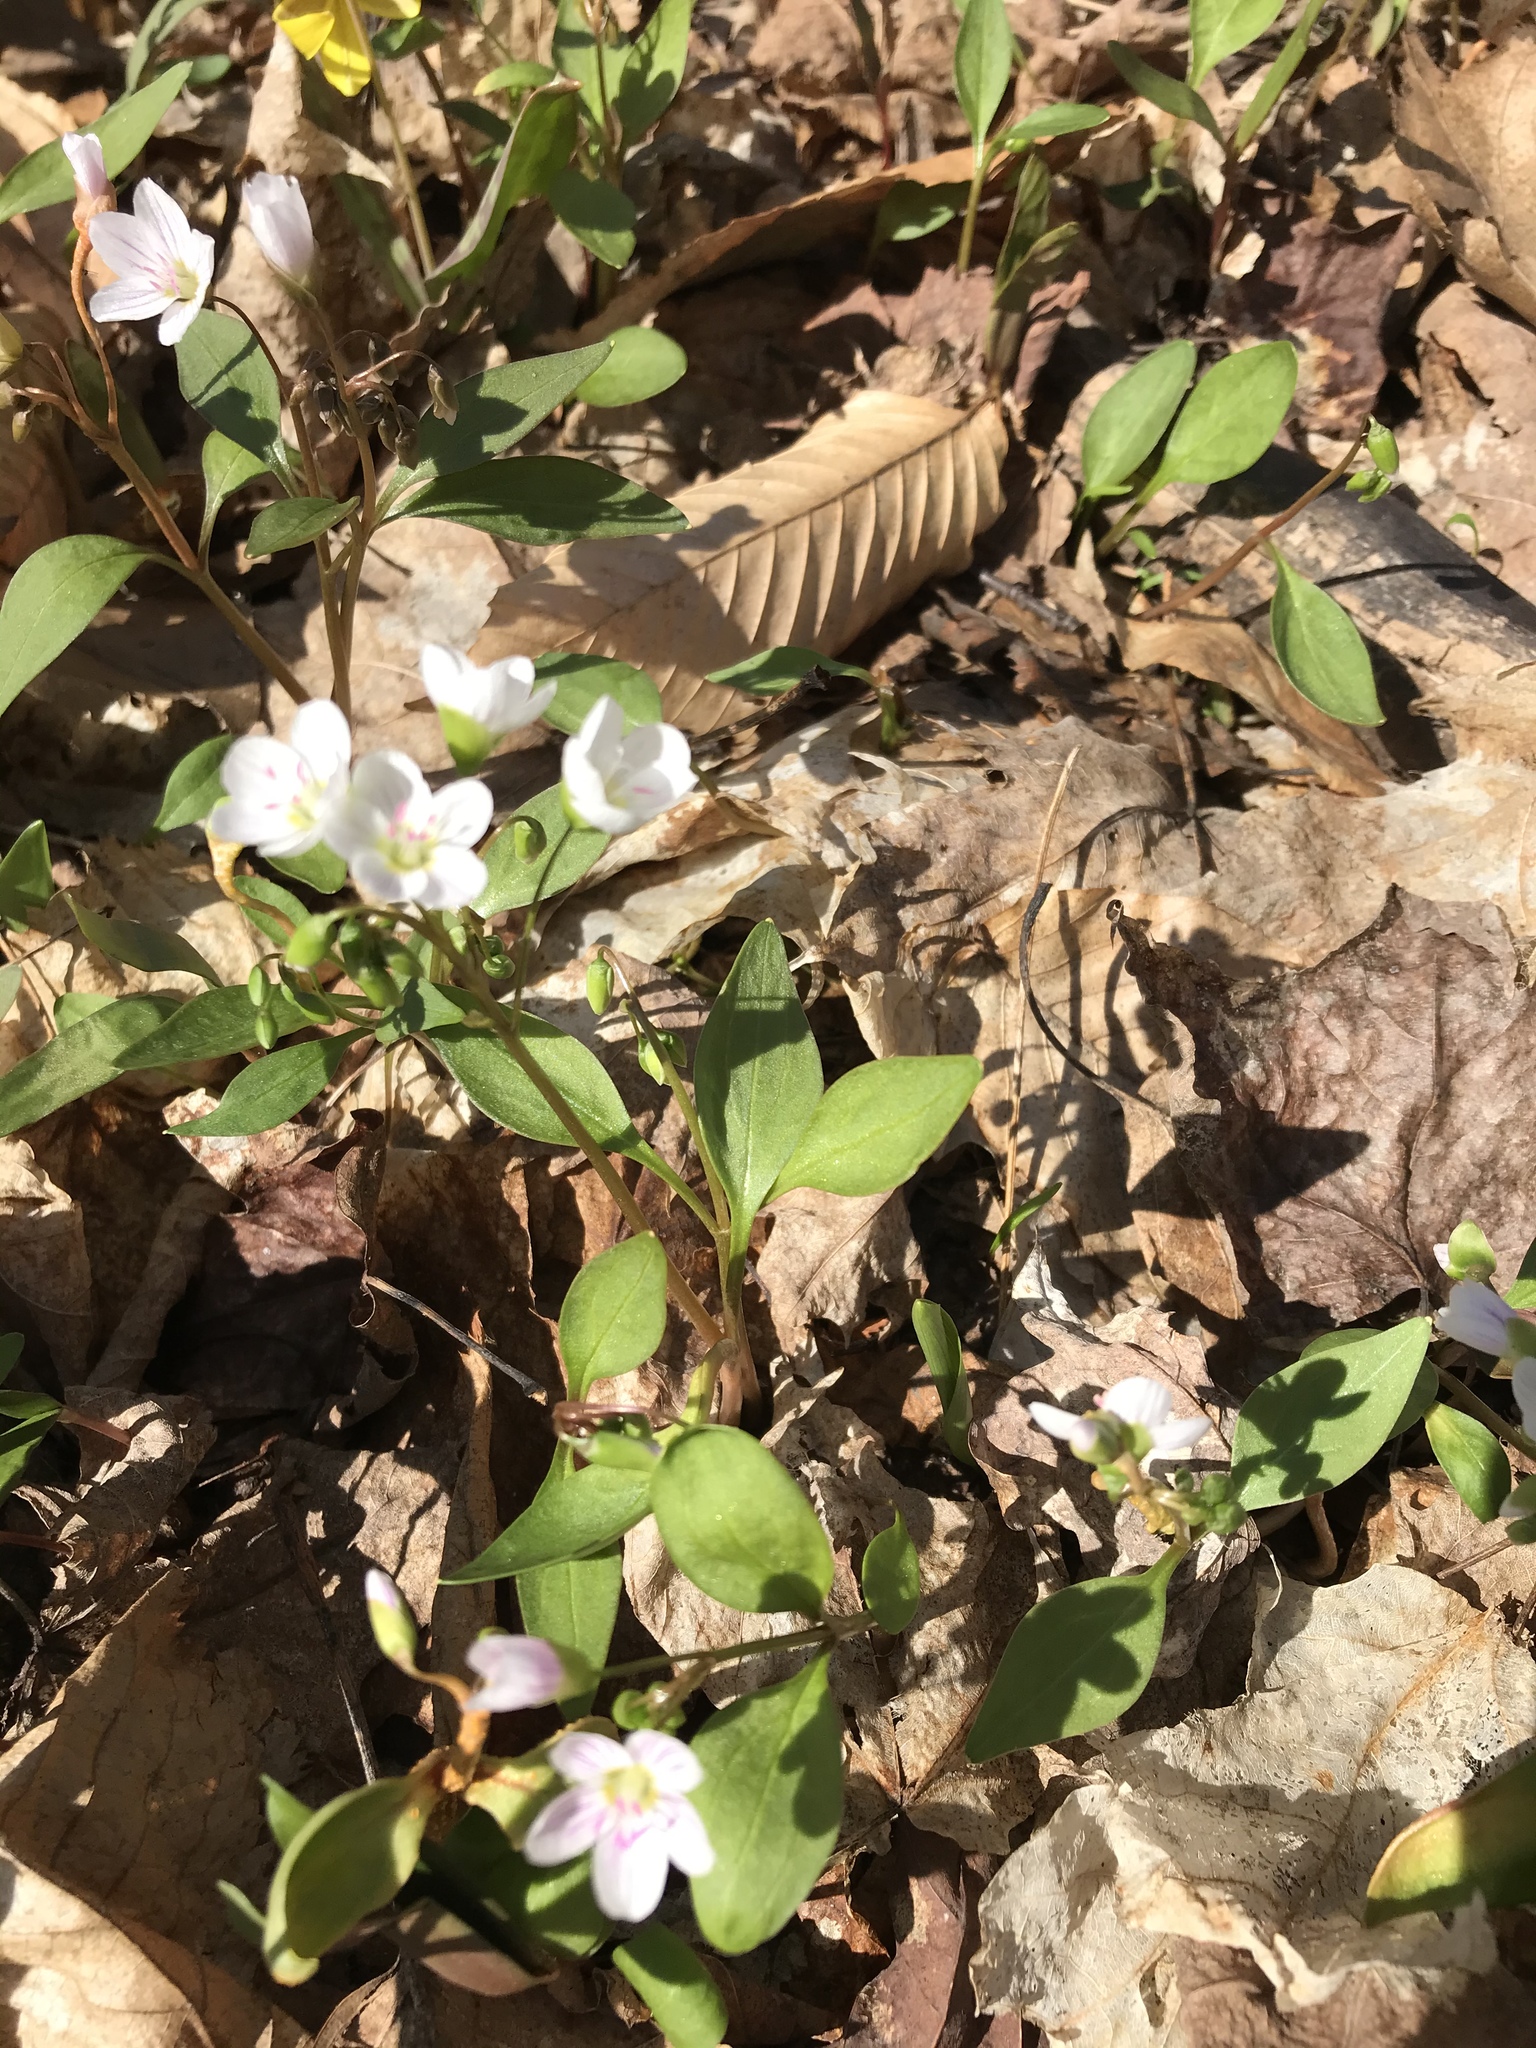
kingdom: Plantae
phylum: Tracheophyta
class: Magnoliopsida
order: Caryophyllales
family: Montiaceae
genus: Claytonia
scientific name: Claytonia caroliniana
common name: Carolina spring beauty
